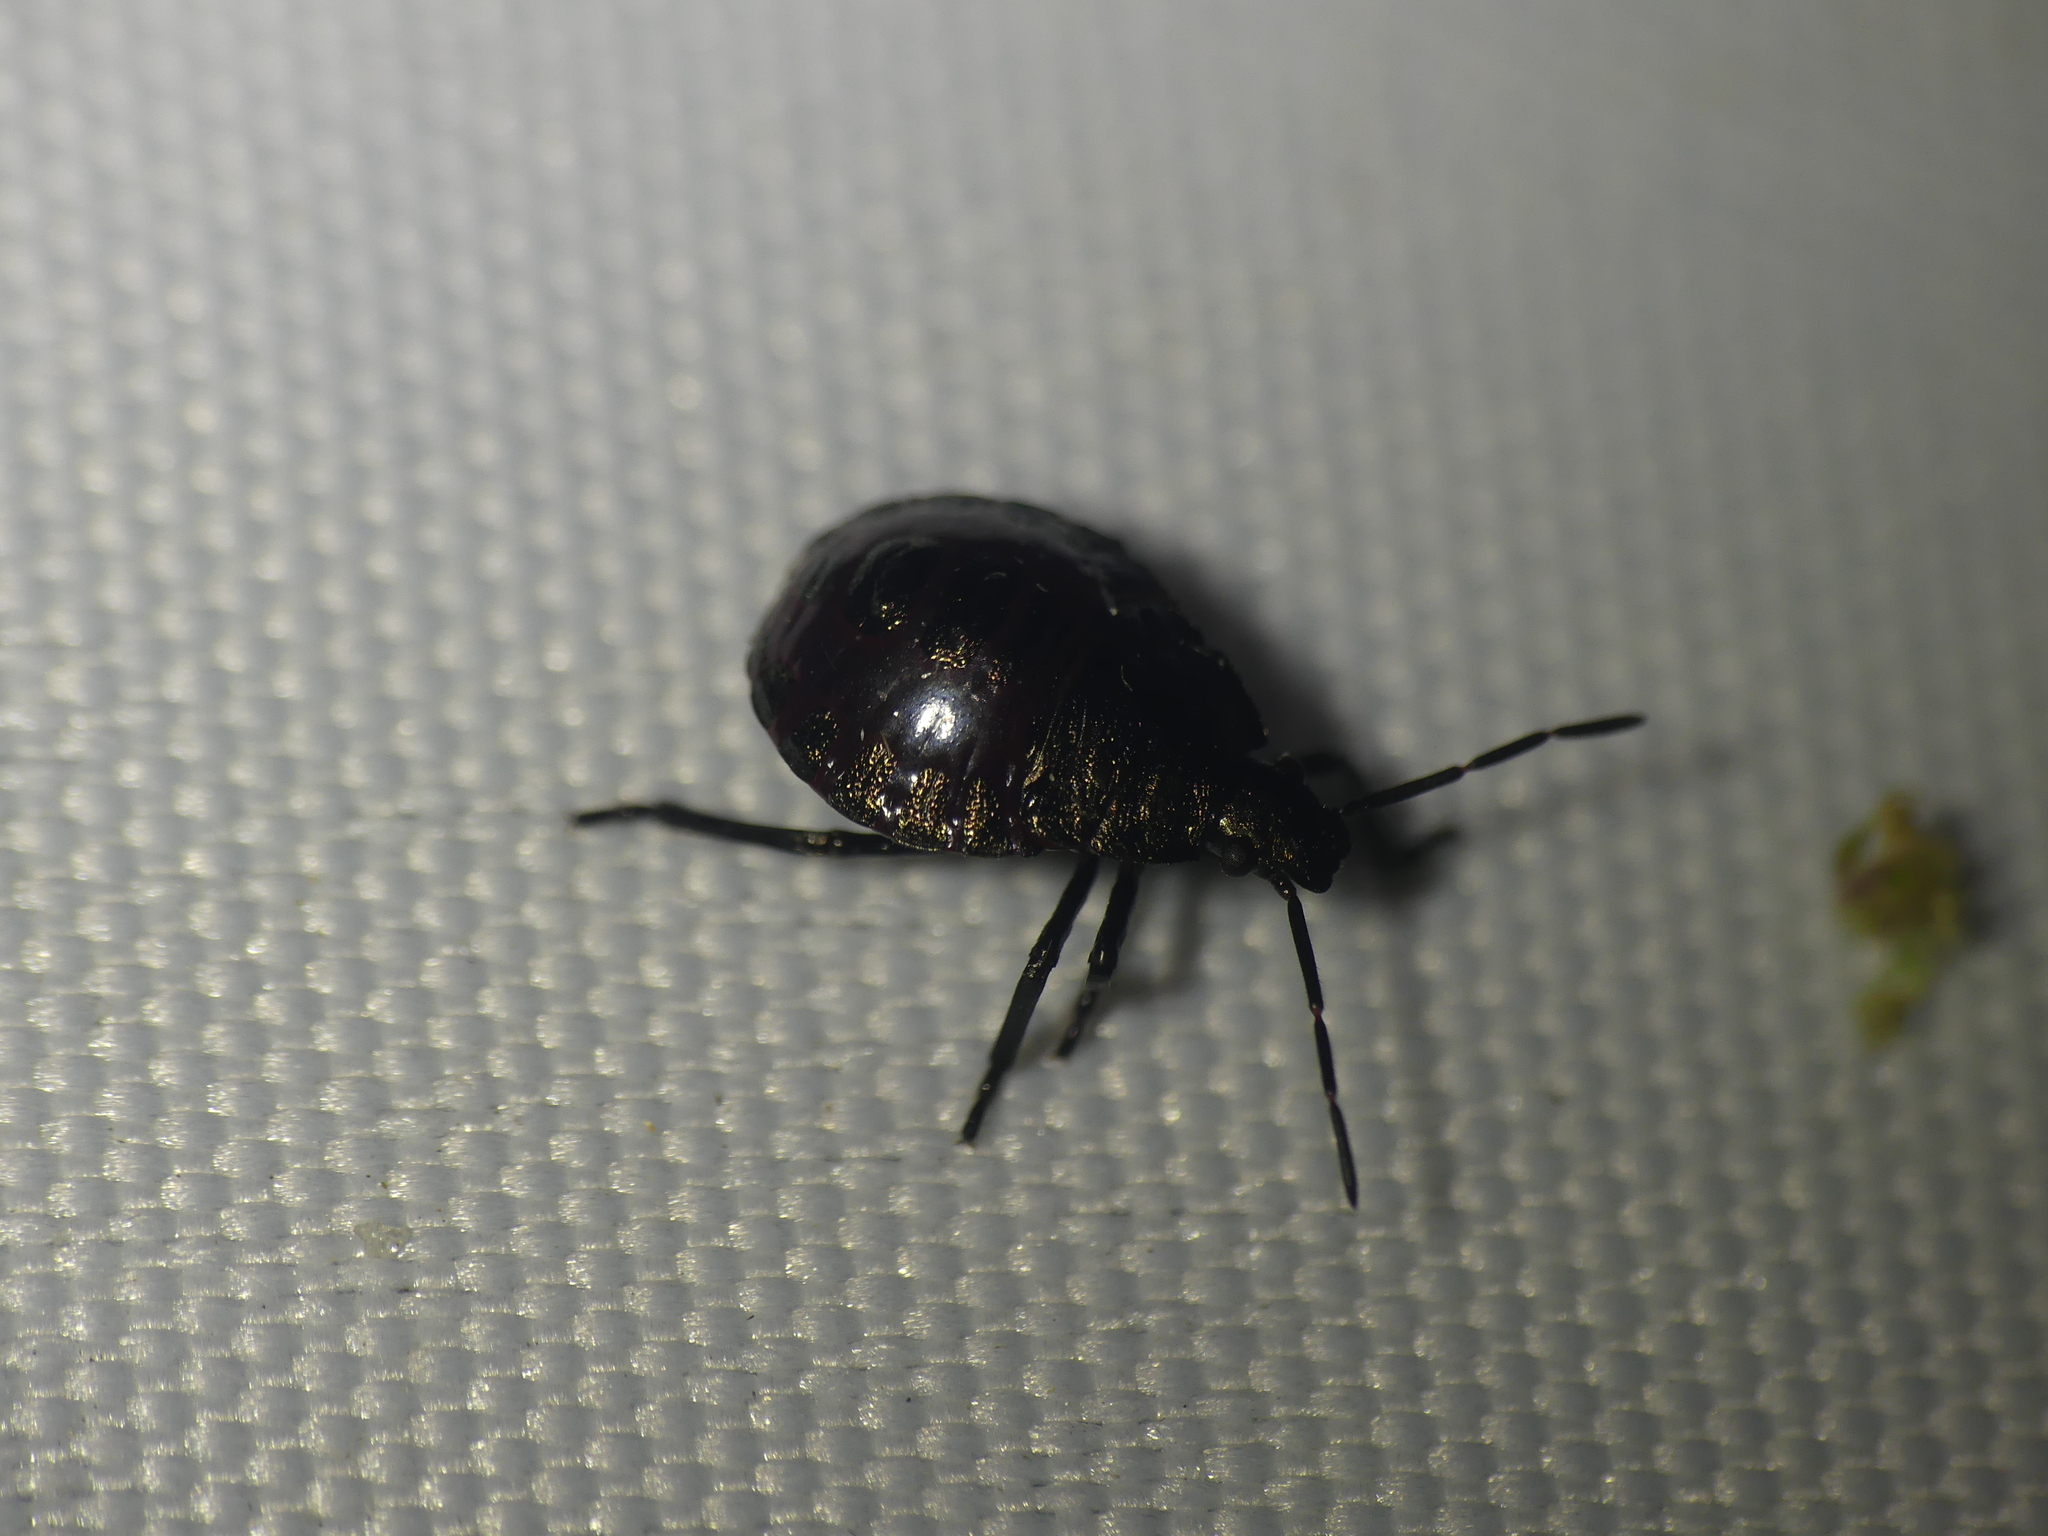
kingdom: Animalia
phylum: Arthropoda
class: Insecta
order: Hemiptera
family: Pentatomidae
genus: Picromerus
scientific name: Picromerus bidens
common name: Spiked shieldbug
